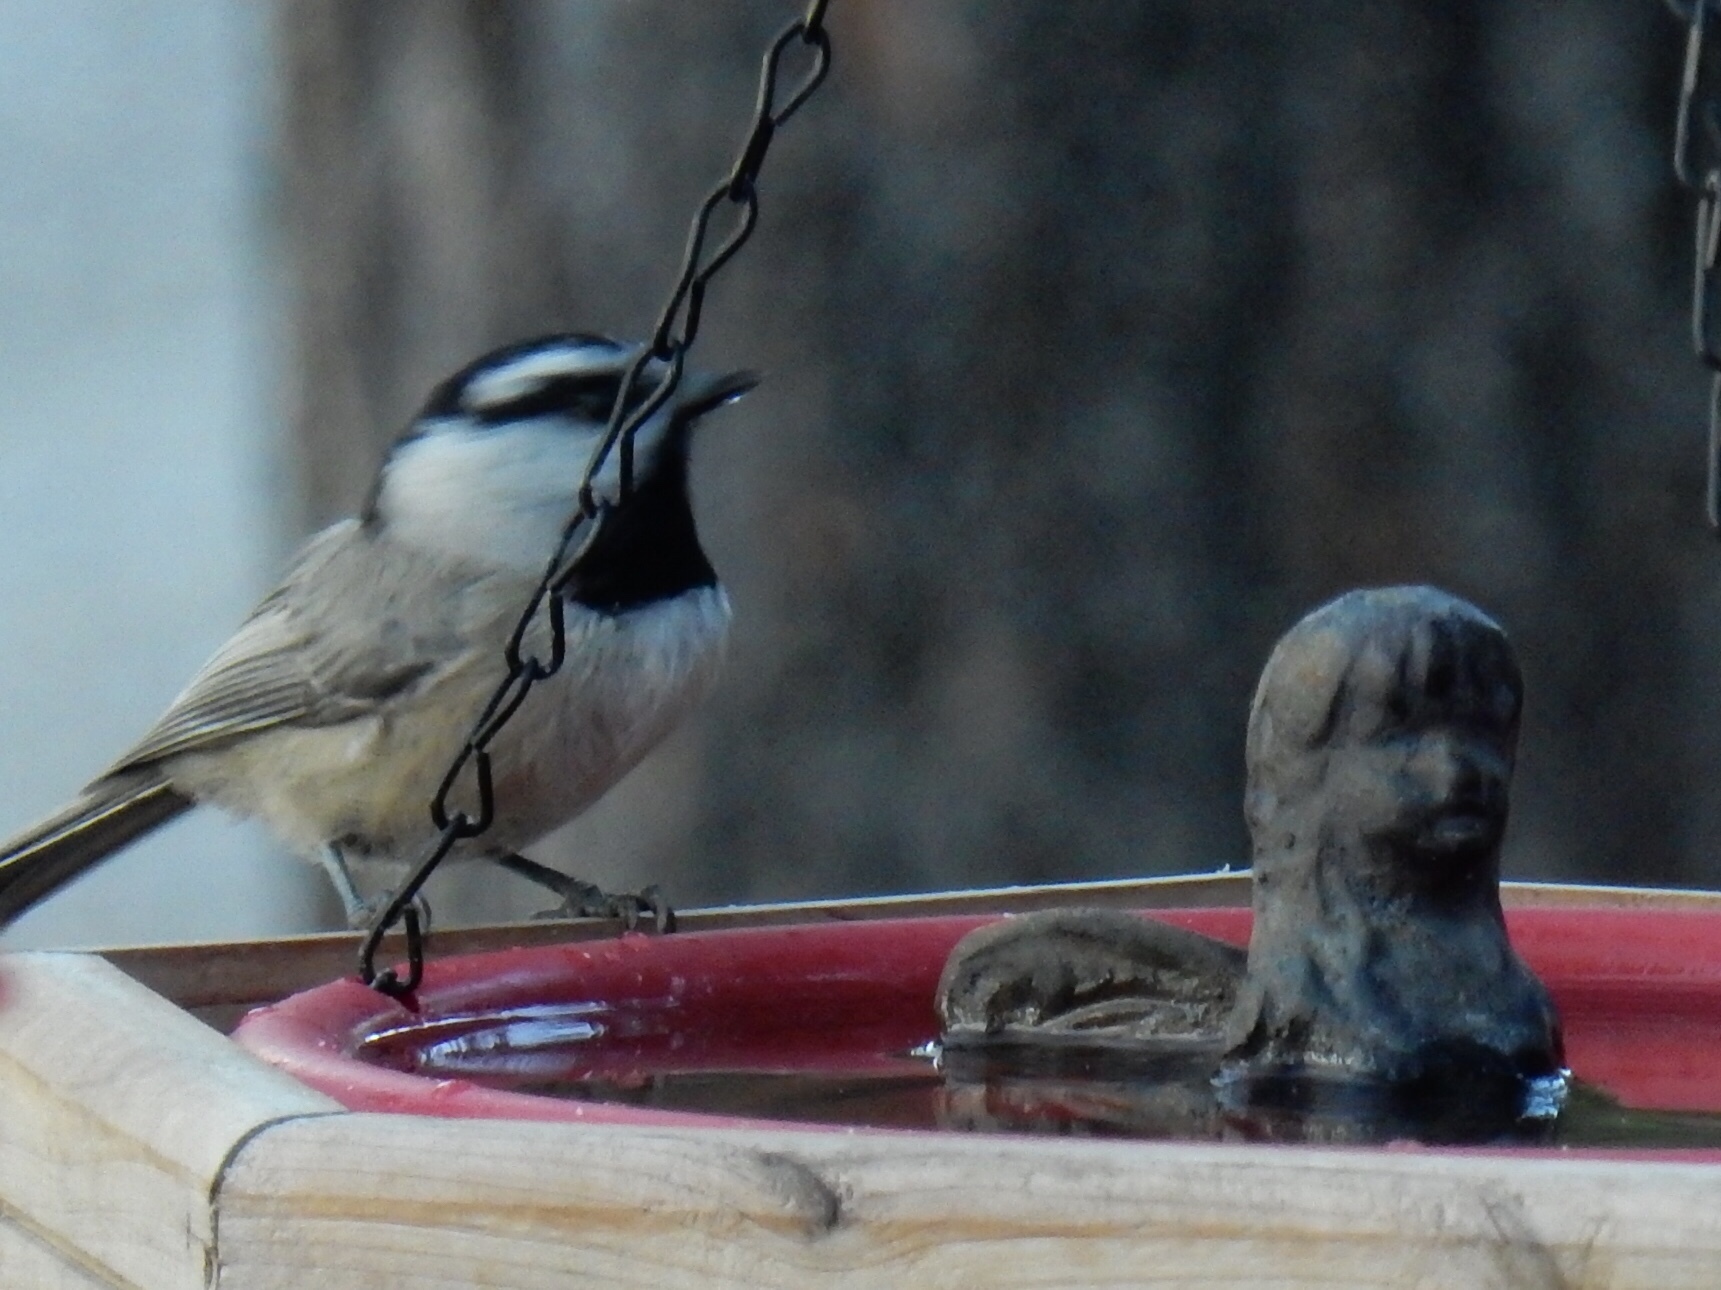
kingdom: Animalia
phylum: Chordata
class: Aves
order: Passeriformes
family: Paridae
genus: Poecile
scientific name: Poecile gambeli
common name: Mountain chickadee
